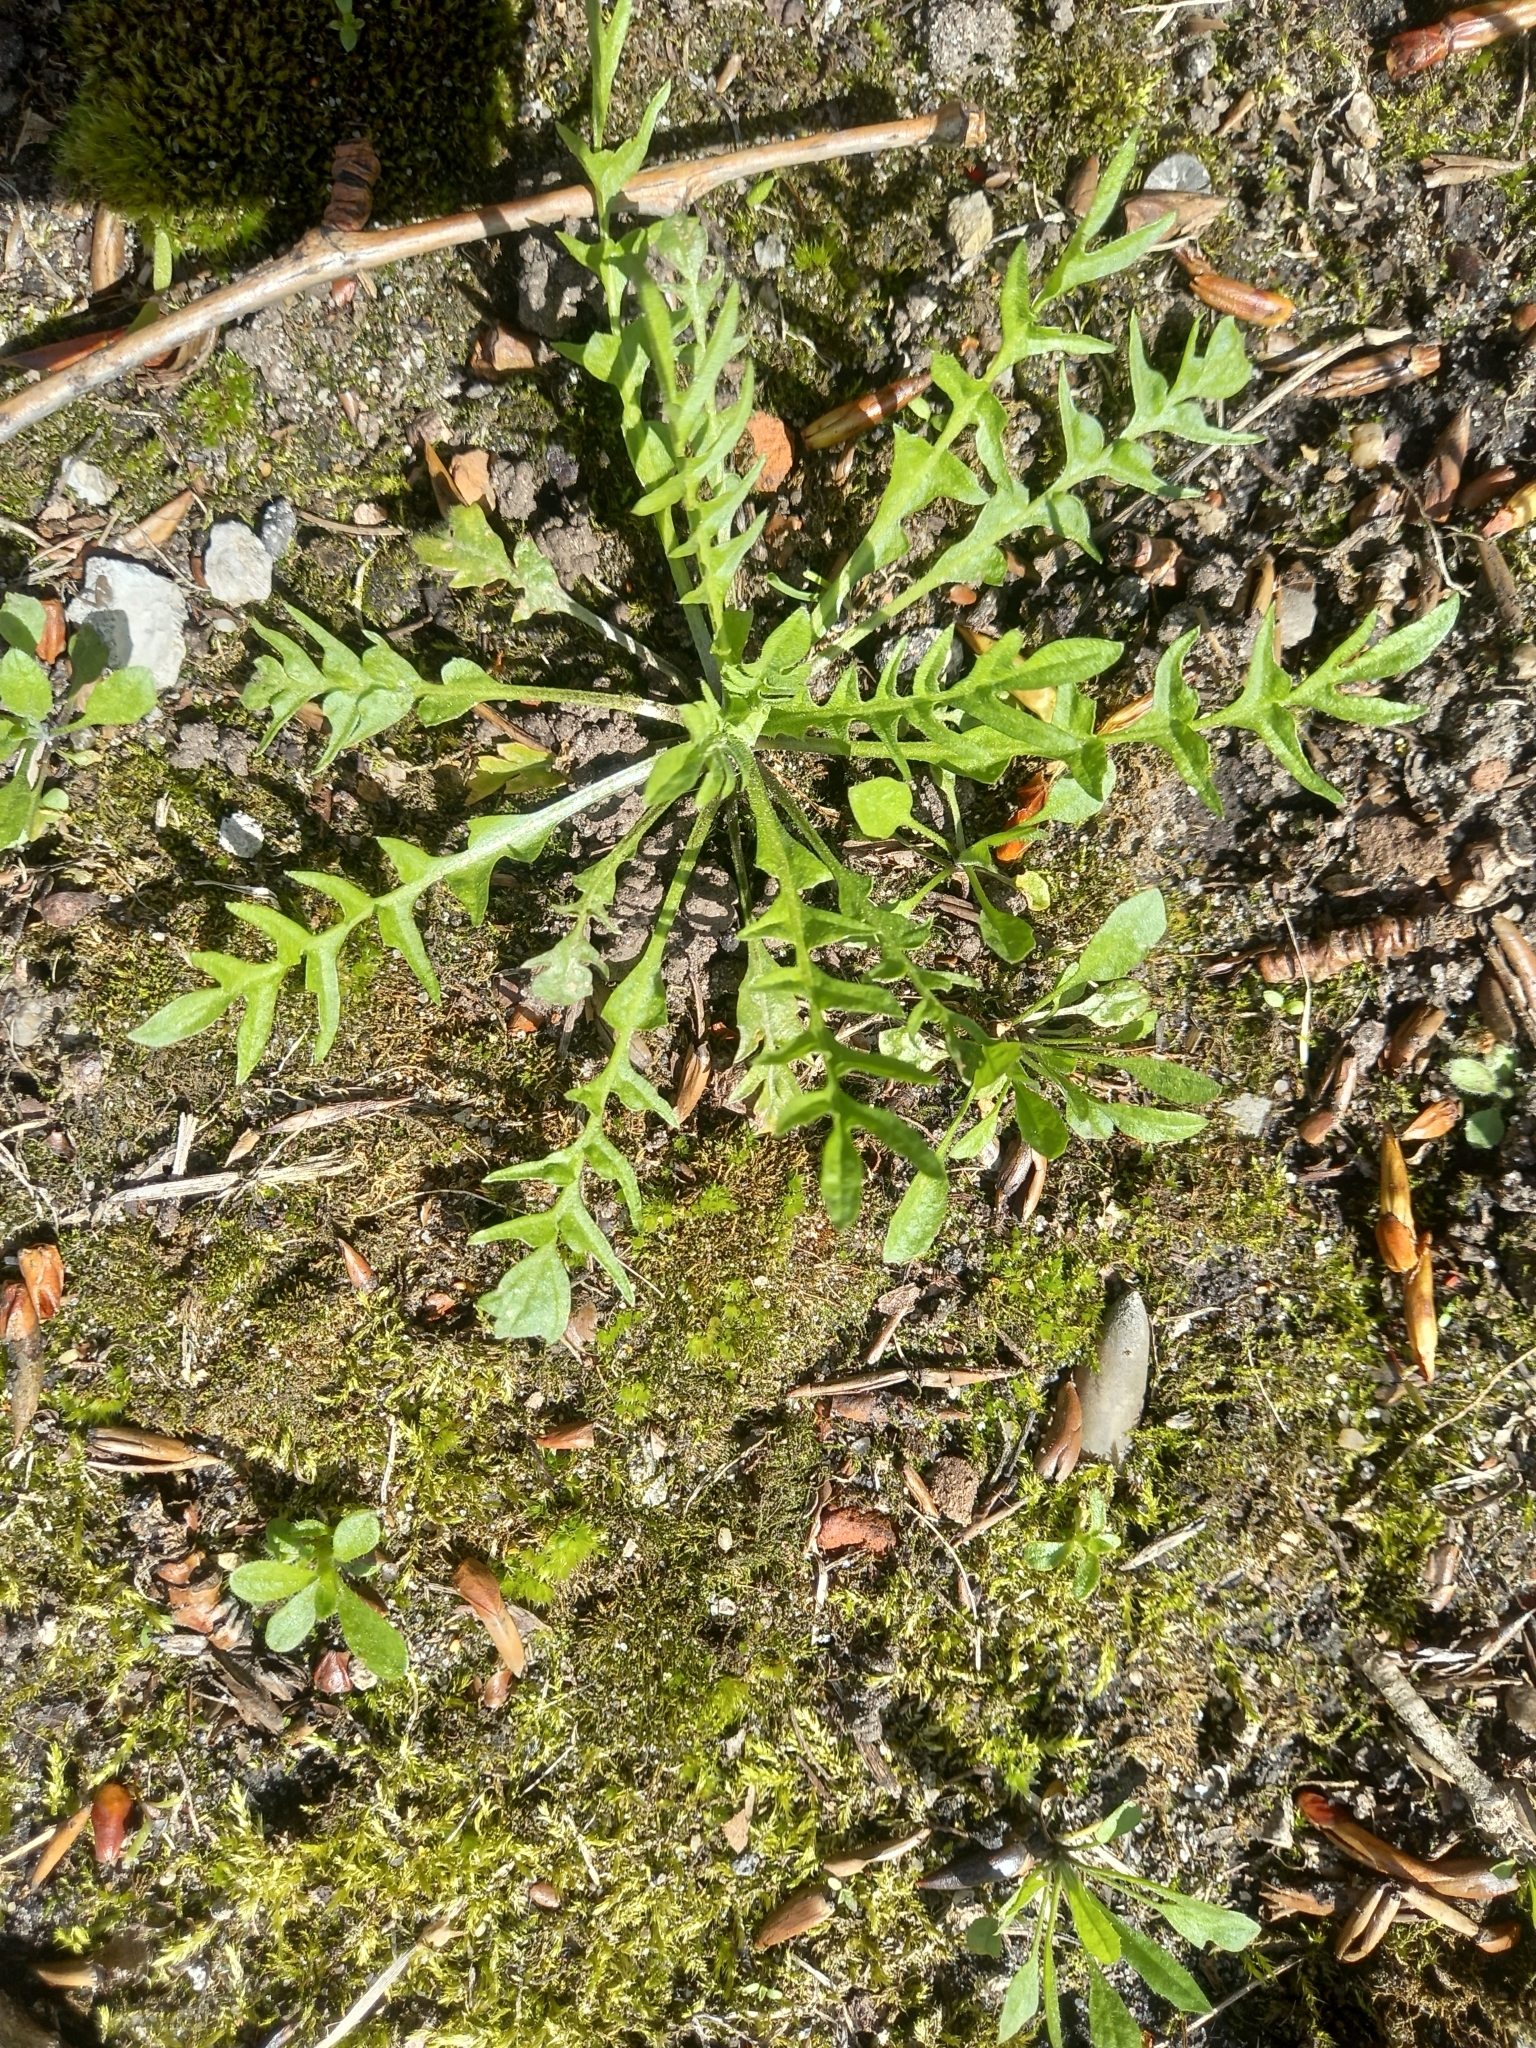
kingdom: Plantae
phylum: Tracheophyta
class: Magnoliopsida
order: Brassicales
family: Brassicaceae
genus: Capsella
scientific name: Capsella bursa-pastoris
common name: Shepherd's purse
